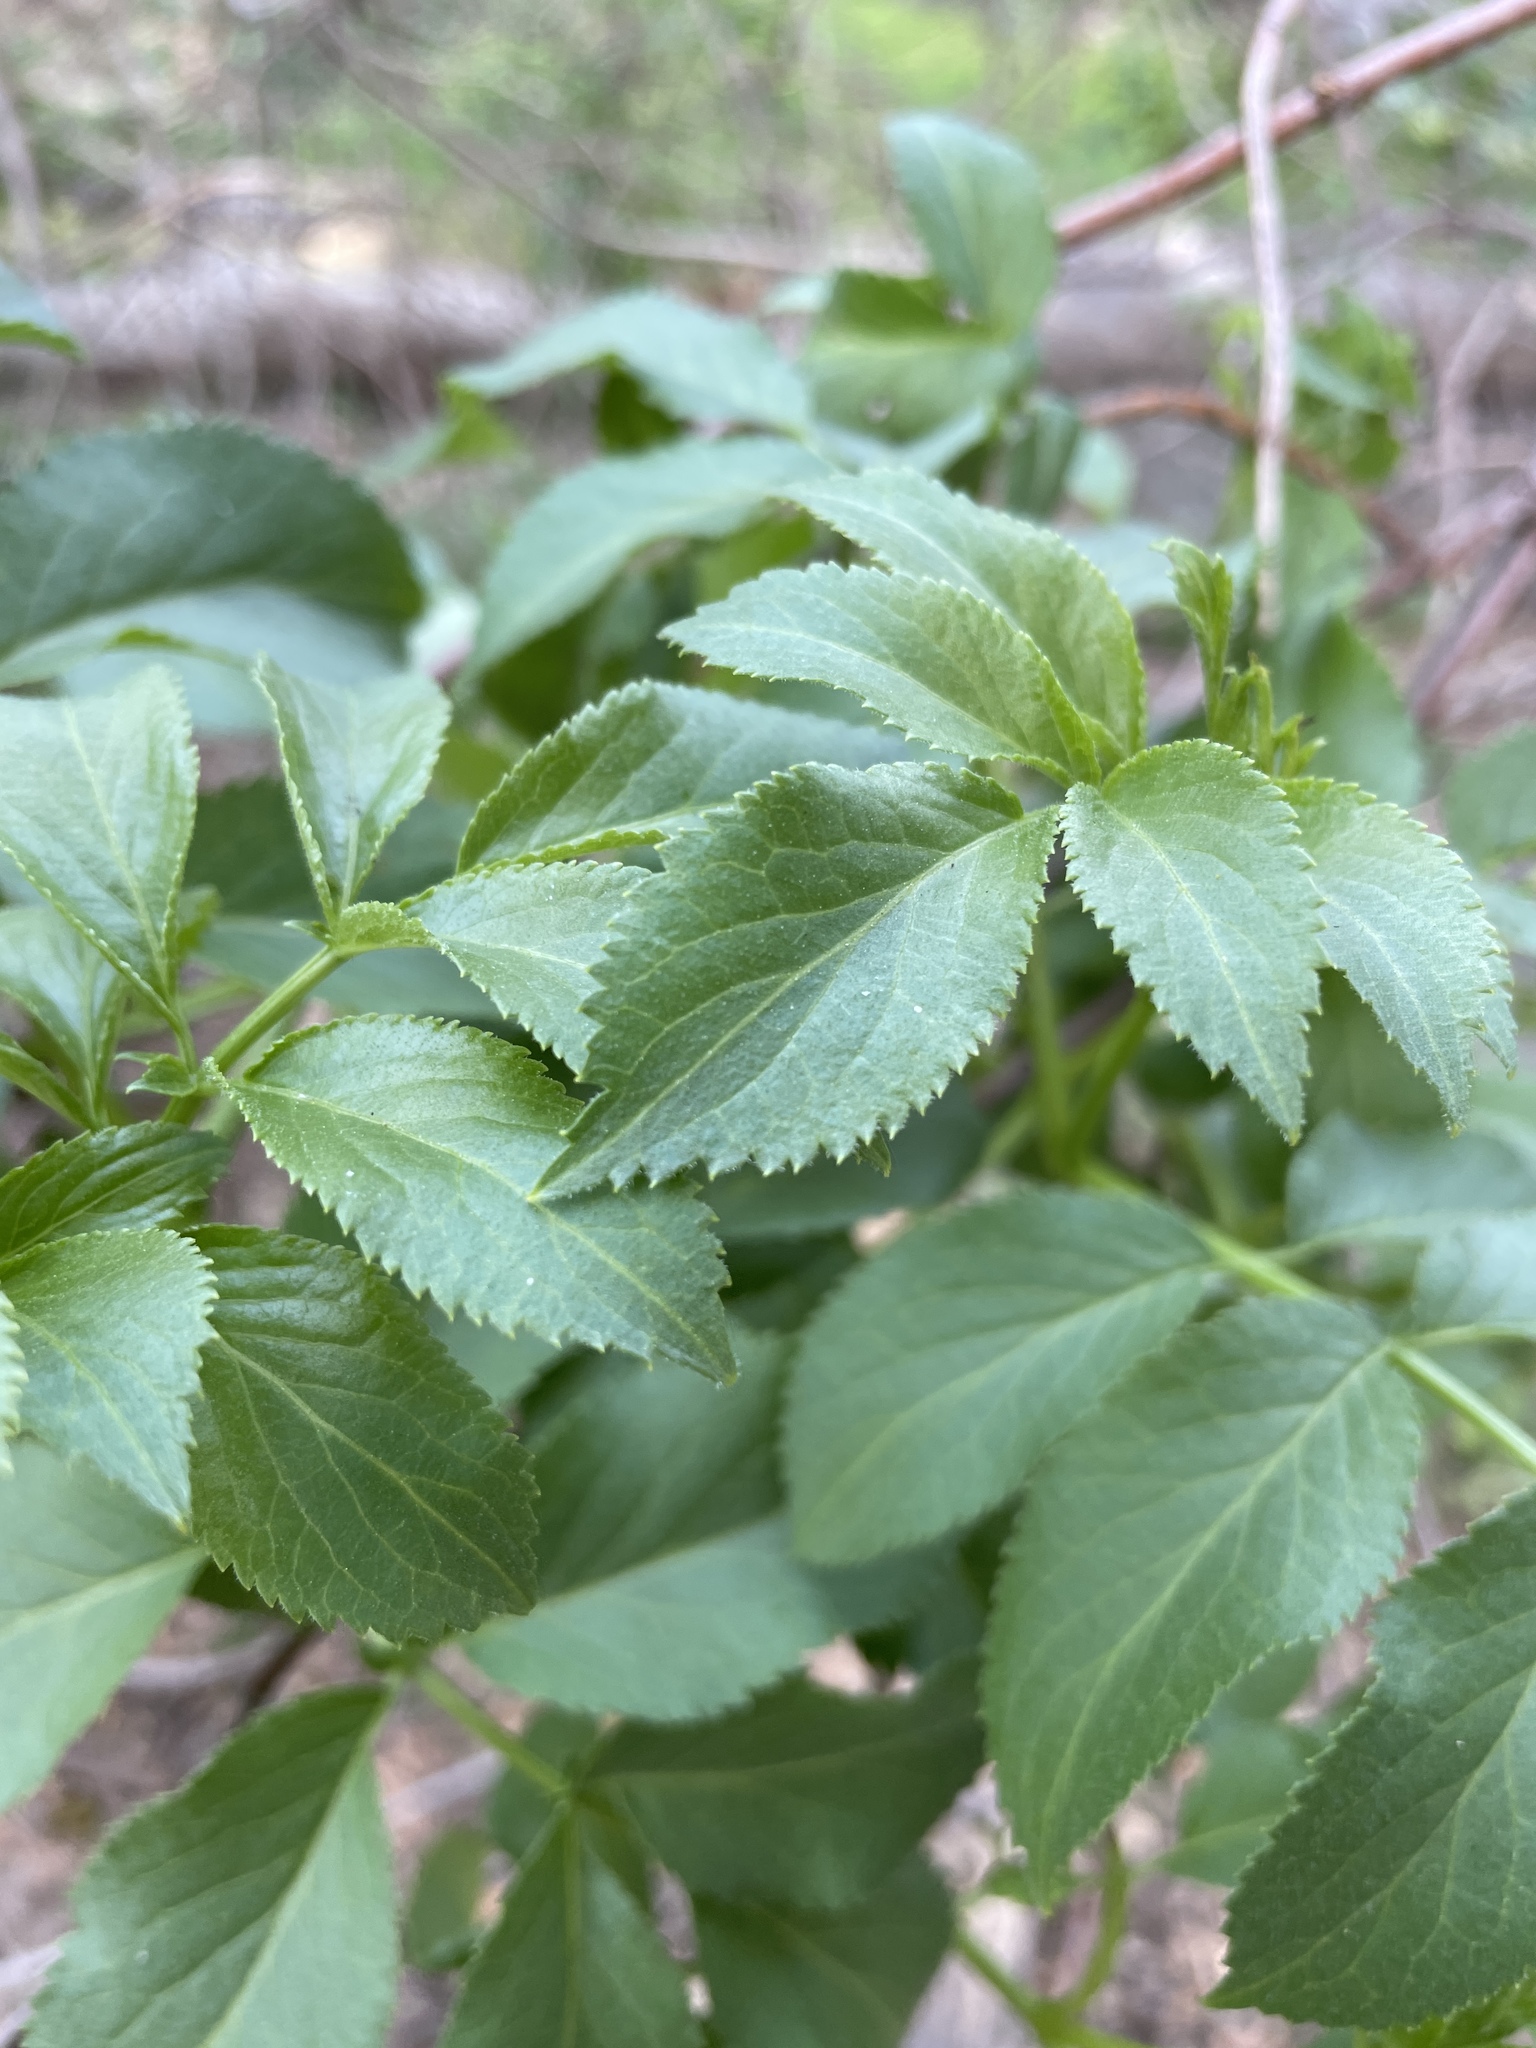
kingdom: Plantae
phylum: Tracheophyta
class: Magnoliopsida
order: Dipsacales
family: Viburnaceae
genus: Sambucus
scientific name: Sambucus cerulea
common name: Blue elder
